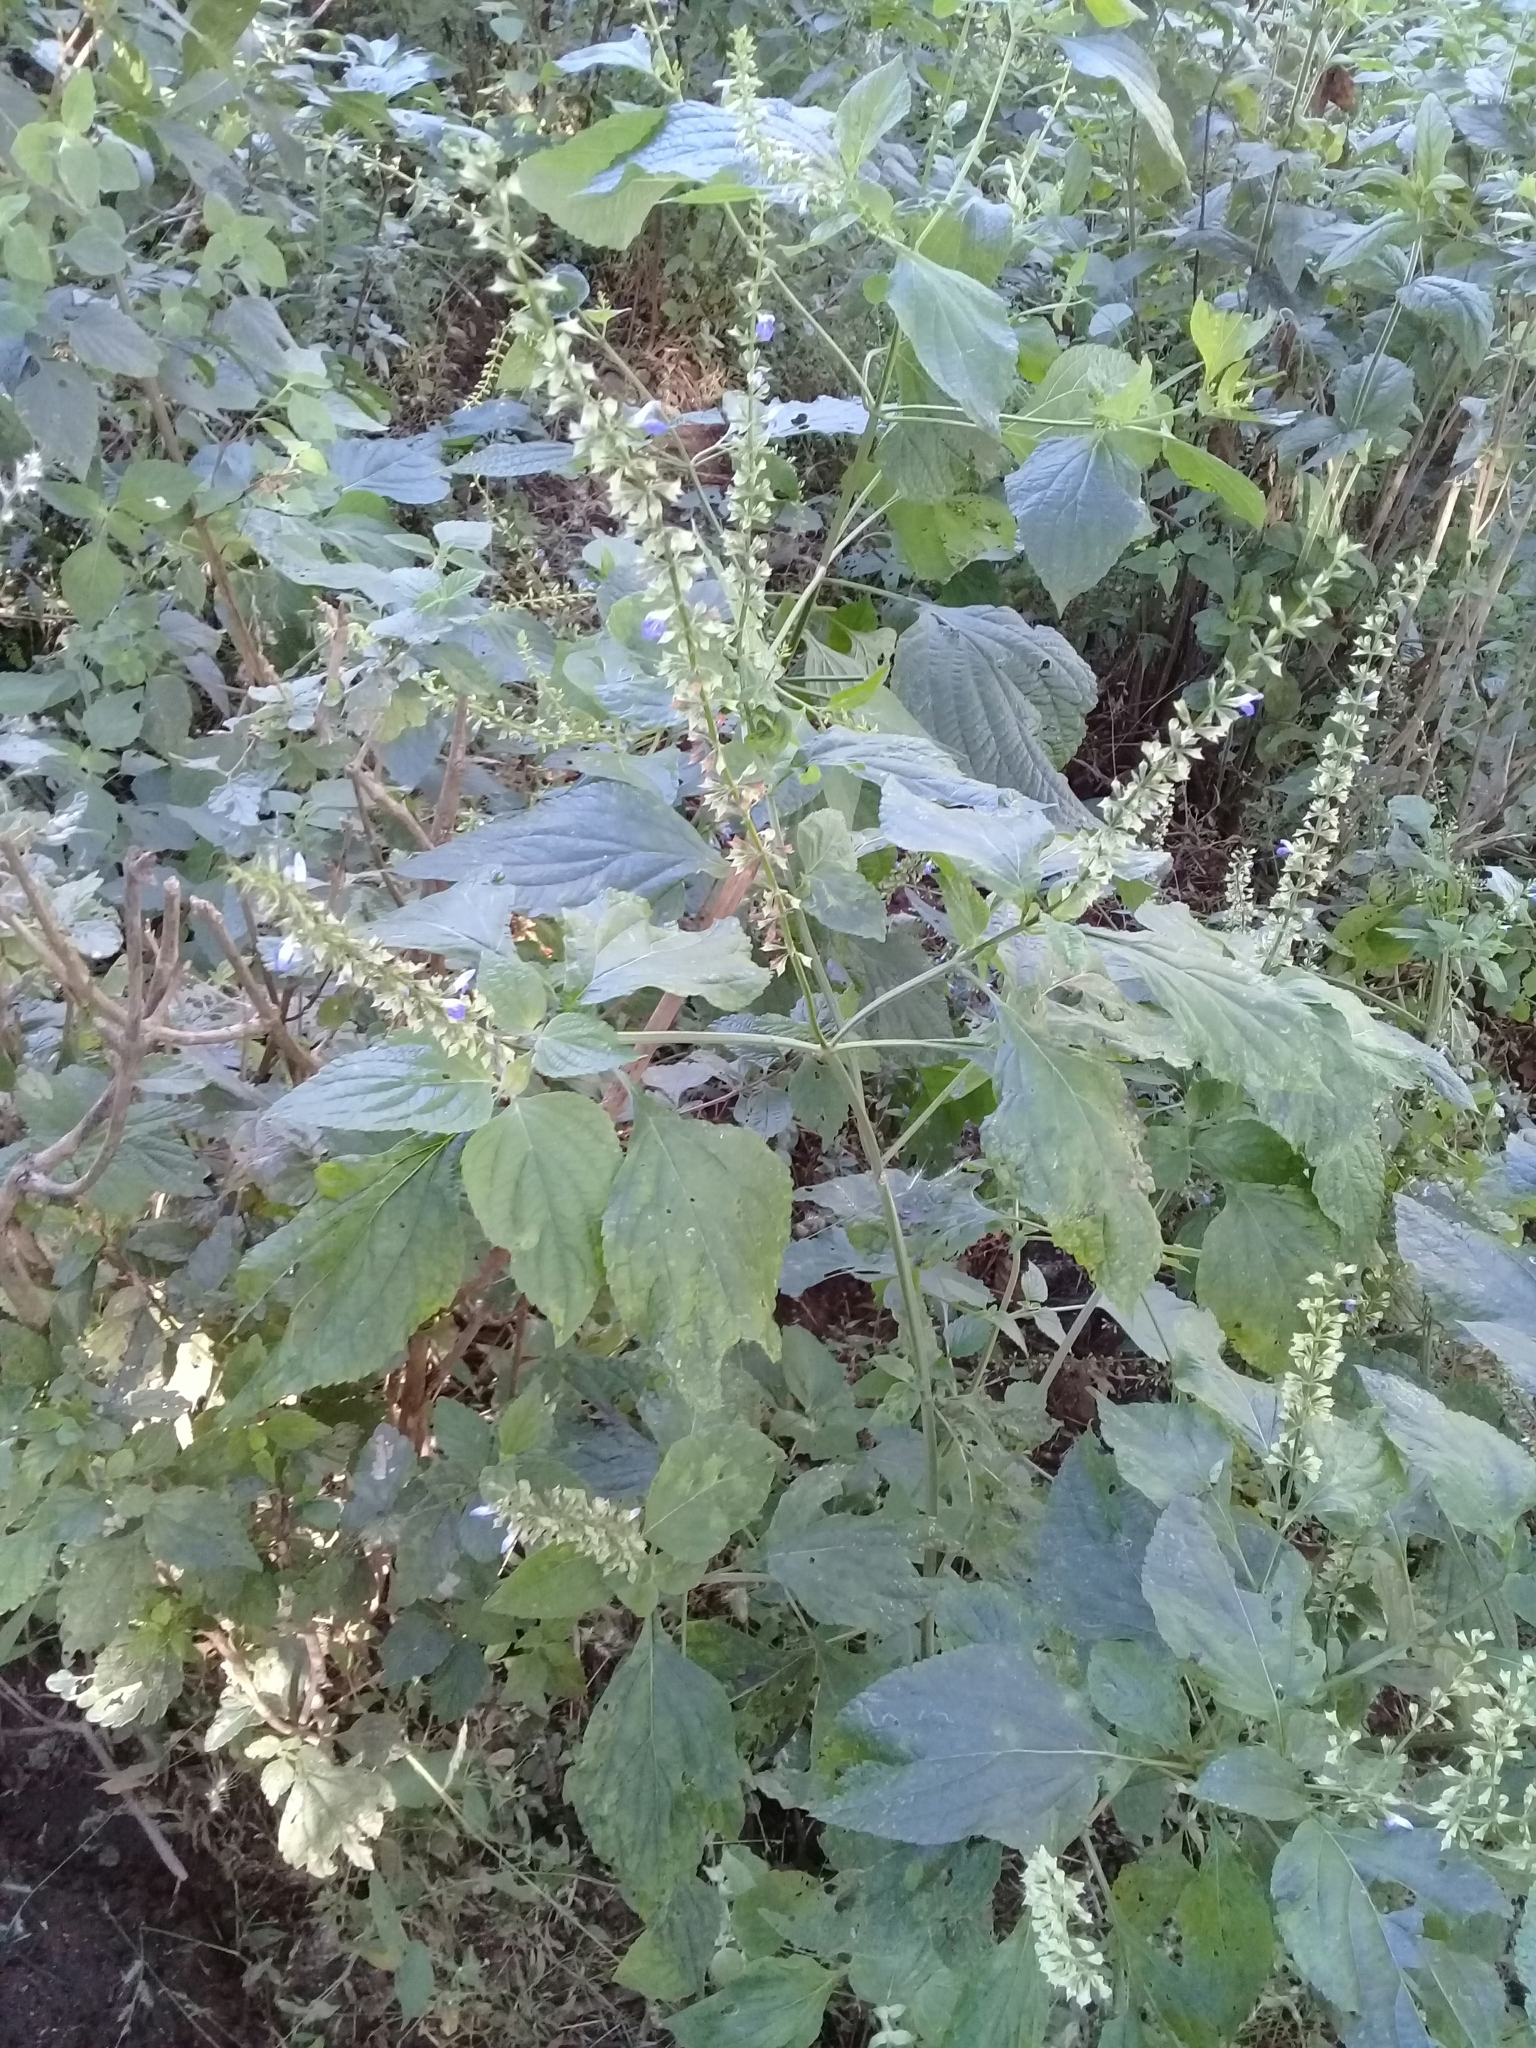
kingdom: Plantae
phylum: Tracheophyta
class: Magnoliopsida
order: Lamiales
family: Lamiaceae
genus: Salvia
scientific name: Salvia longispicata
